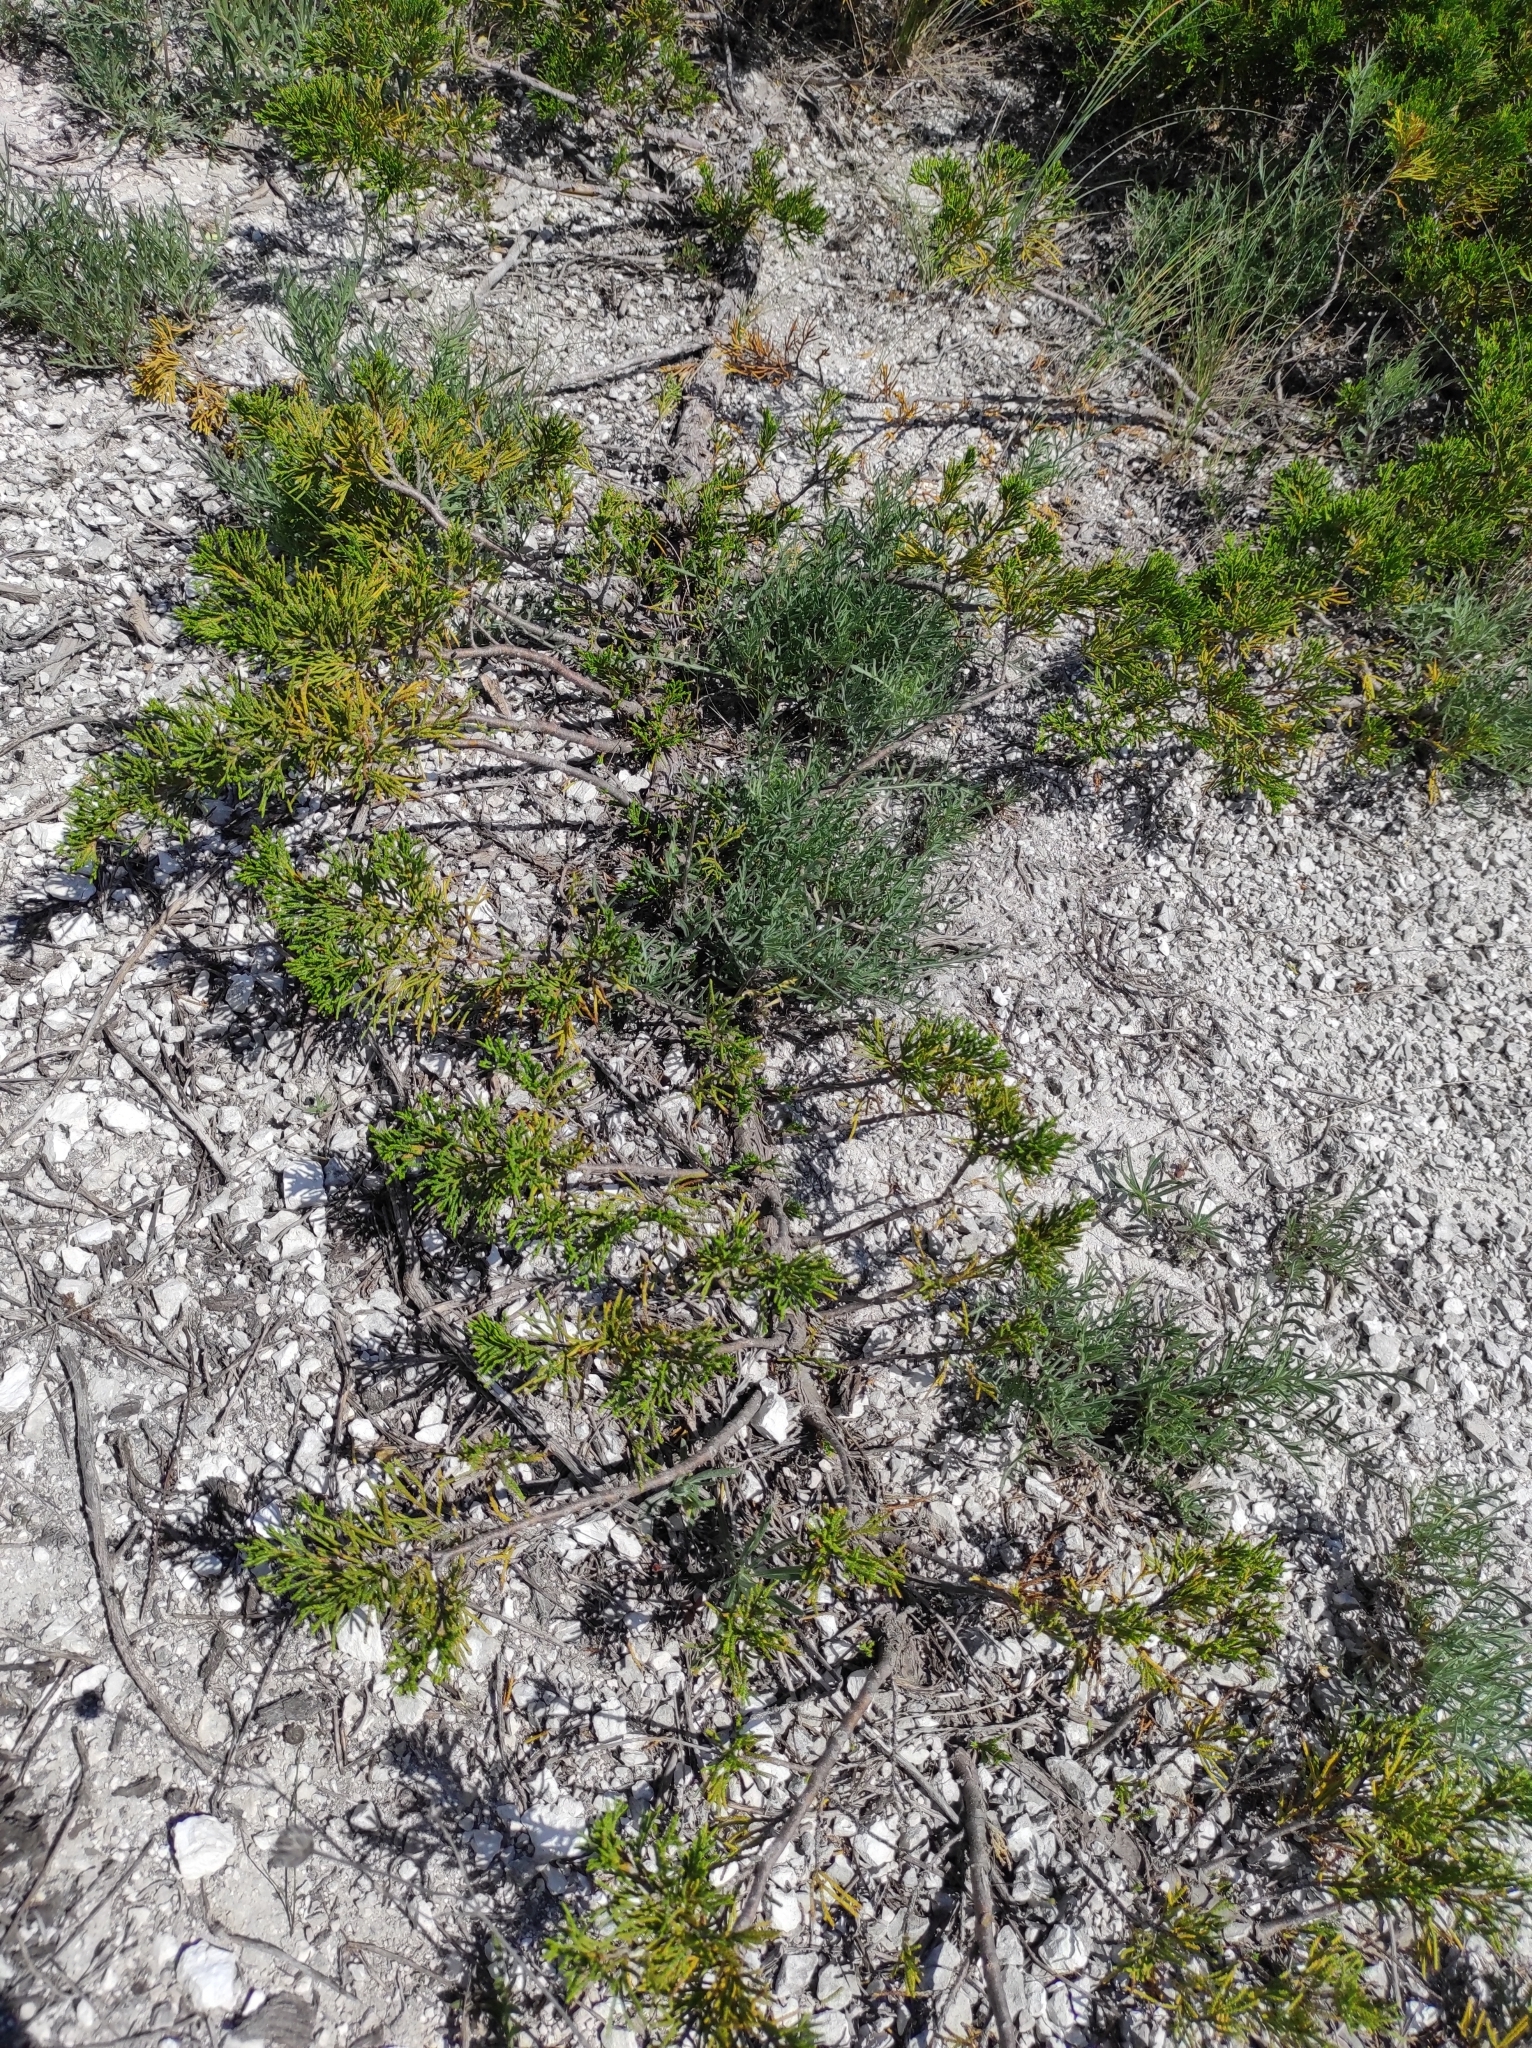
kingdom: Plantae
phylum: Tracheophyta
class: Pinopsida
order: Pinales
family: Cupressaceae
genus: Juniperus
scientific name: Juniperus sabina
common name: Savin
